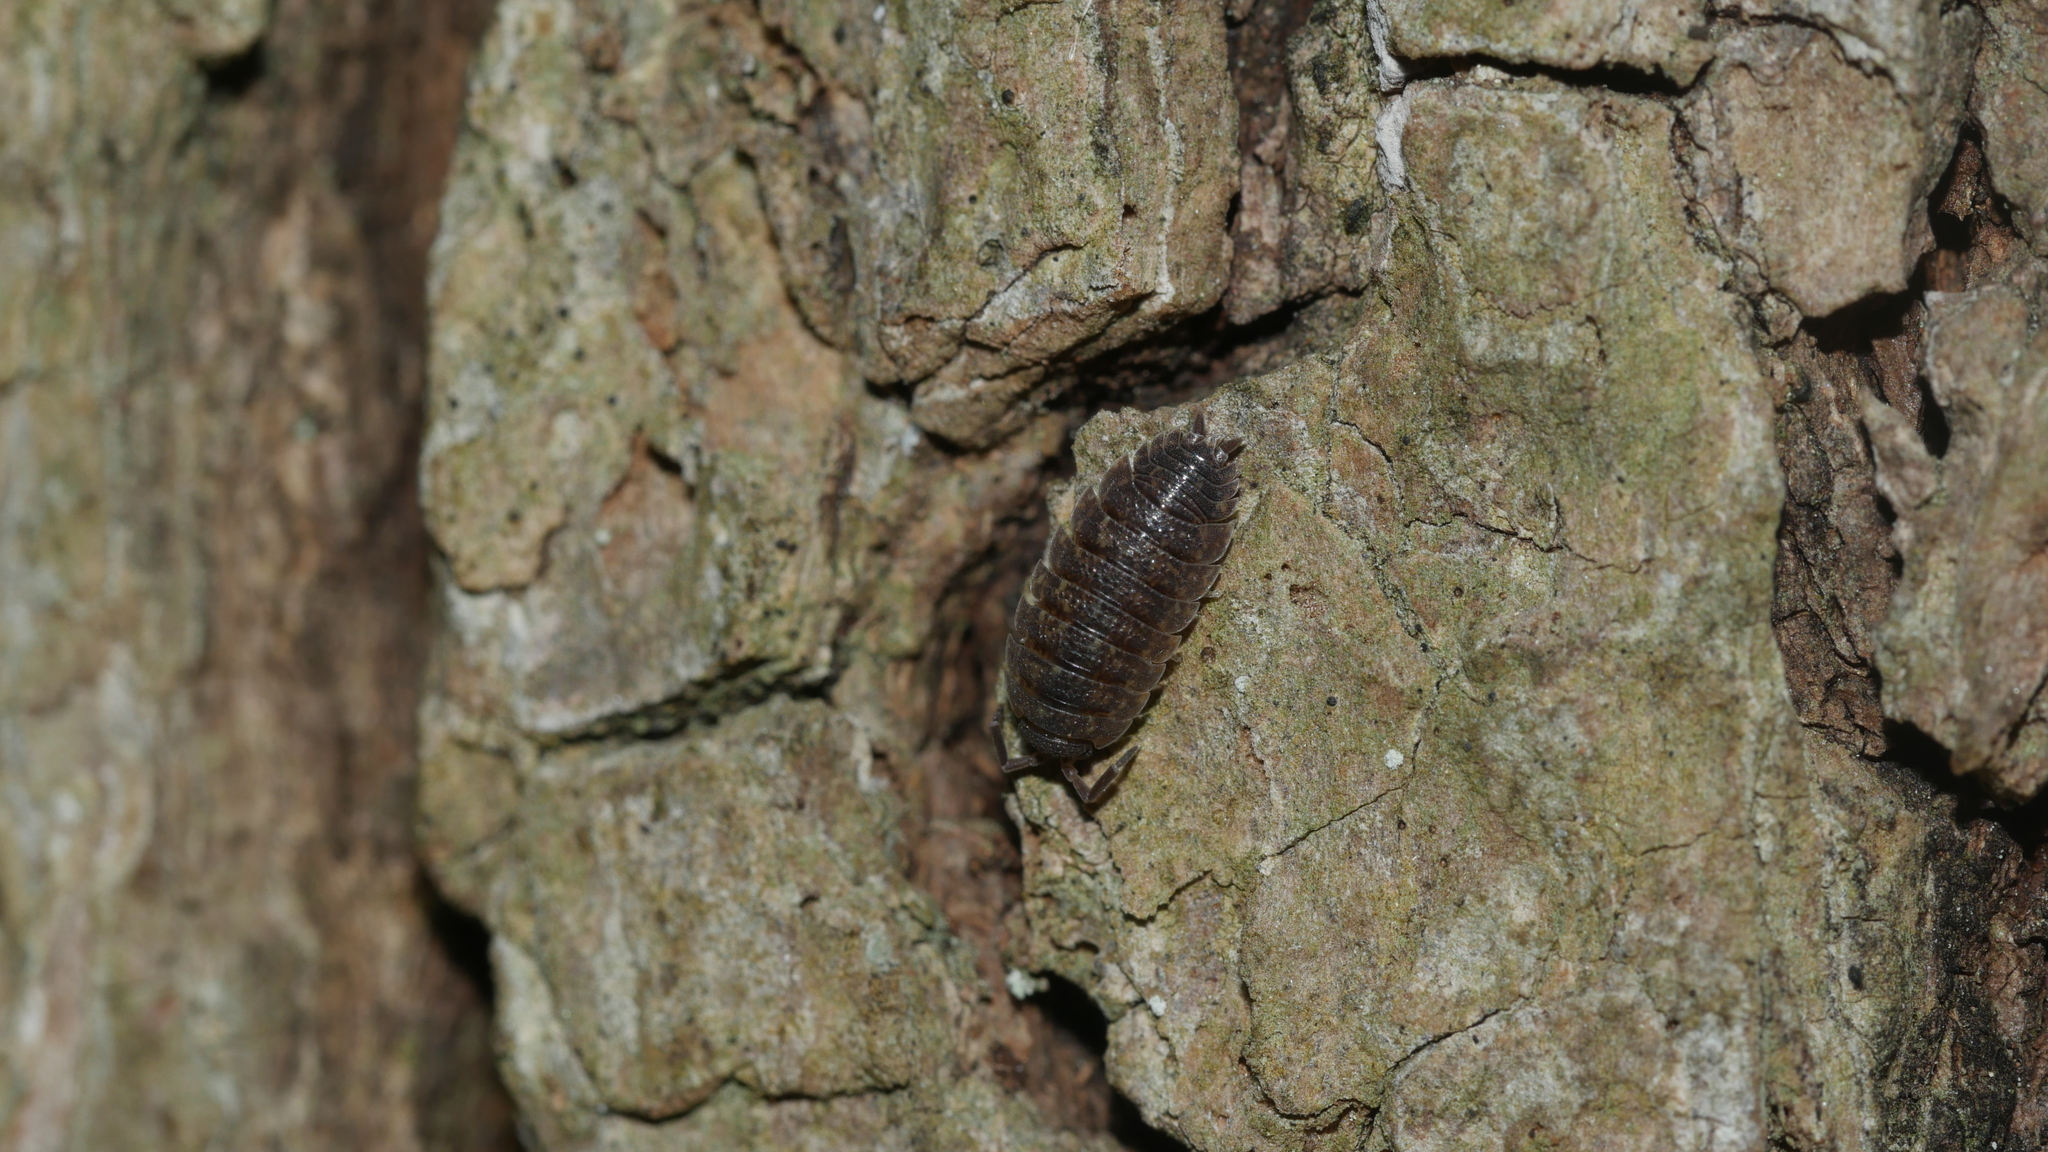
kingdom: Animalia
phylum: Arthropoda
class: Malacostraca
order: Isopoda
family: Porcellionidae
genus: Porcellio
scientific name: Porcellio scaber
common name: Common rough woodlouse
